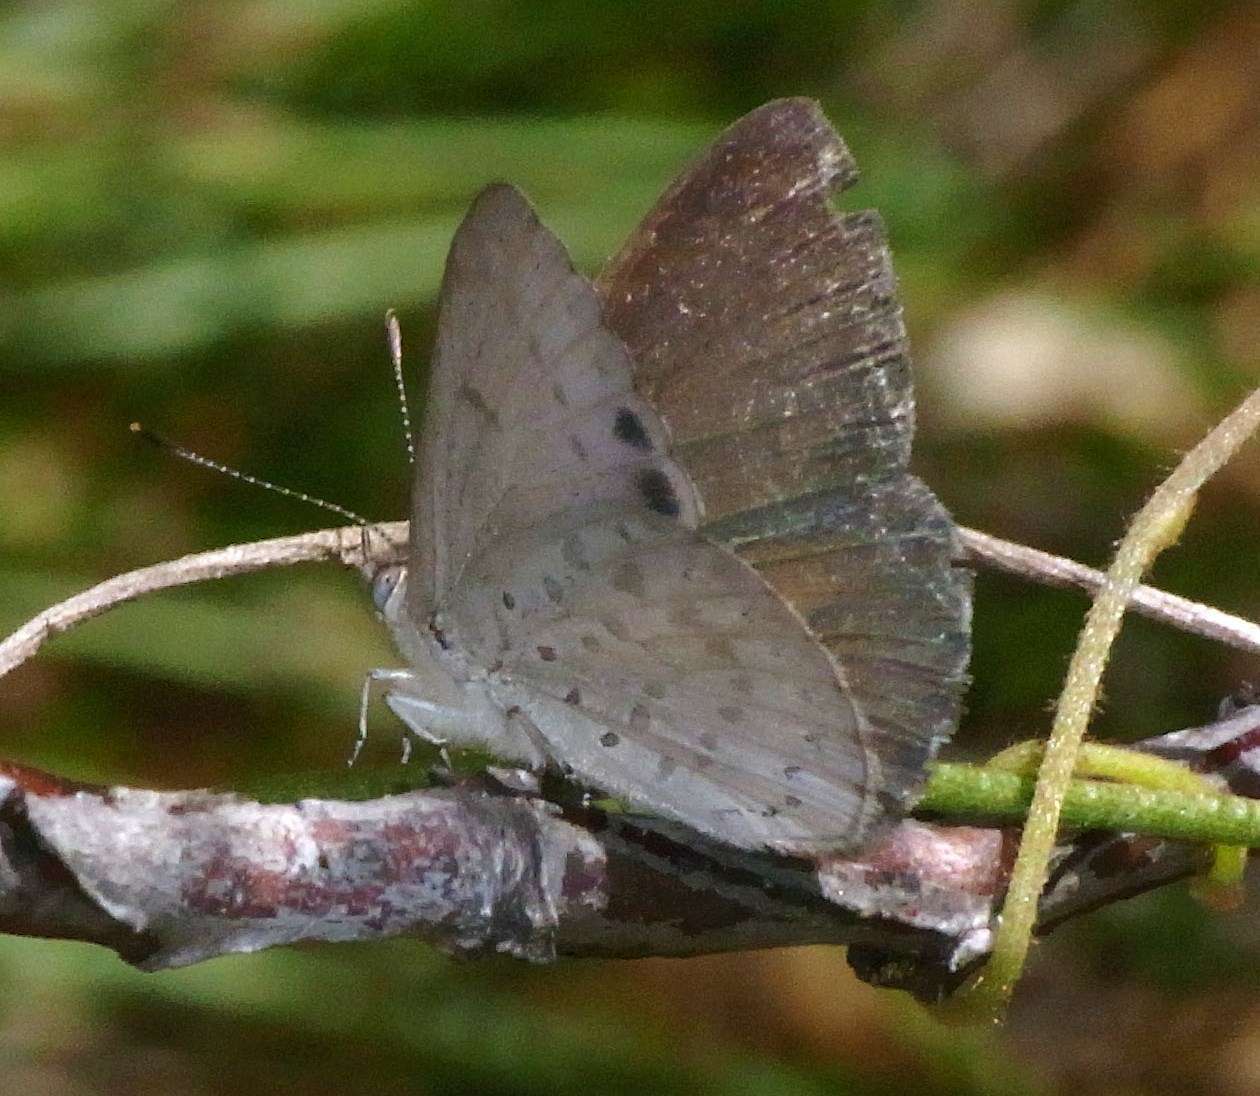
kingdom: Animalia
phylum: Arthropoda
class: Insecta
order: Lepidoptera
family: Lycaenidae
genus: Candalides
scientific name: Candalides
